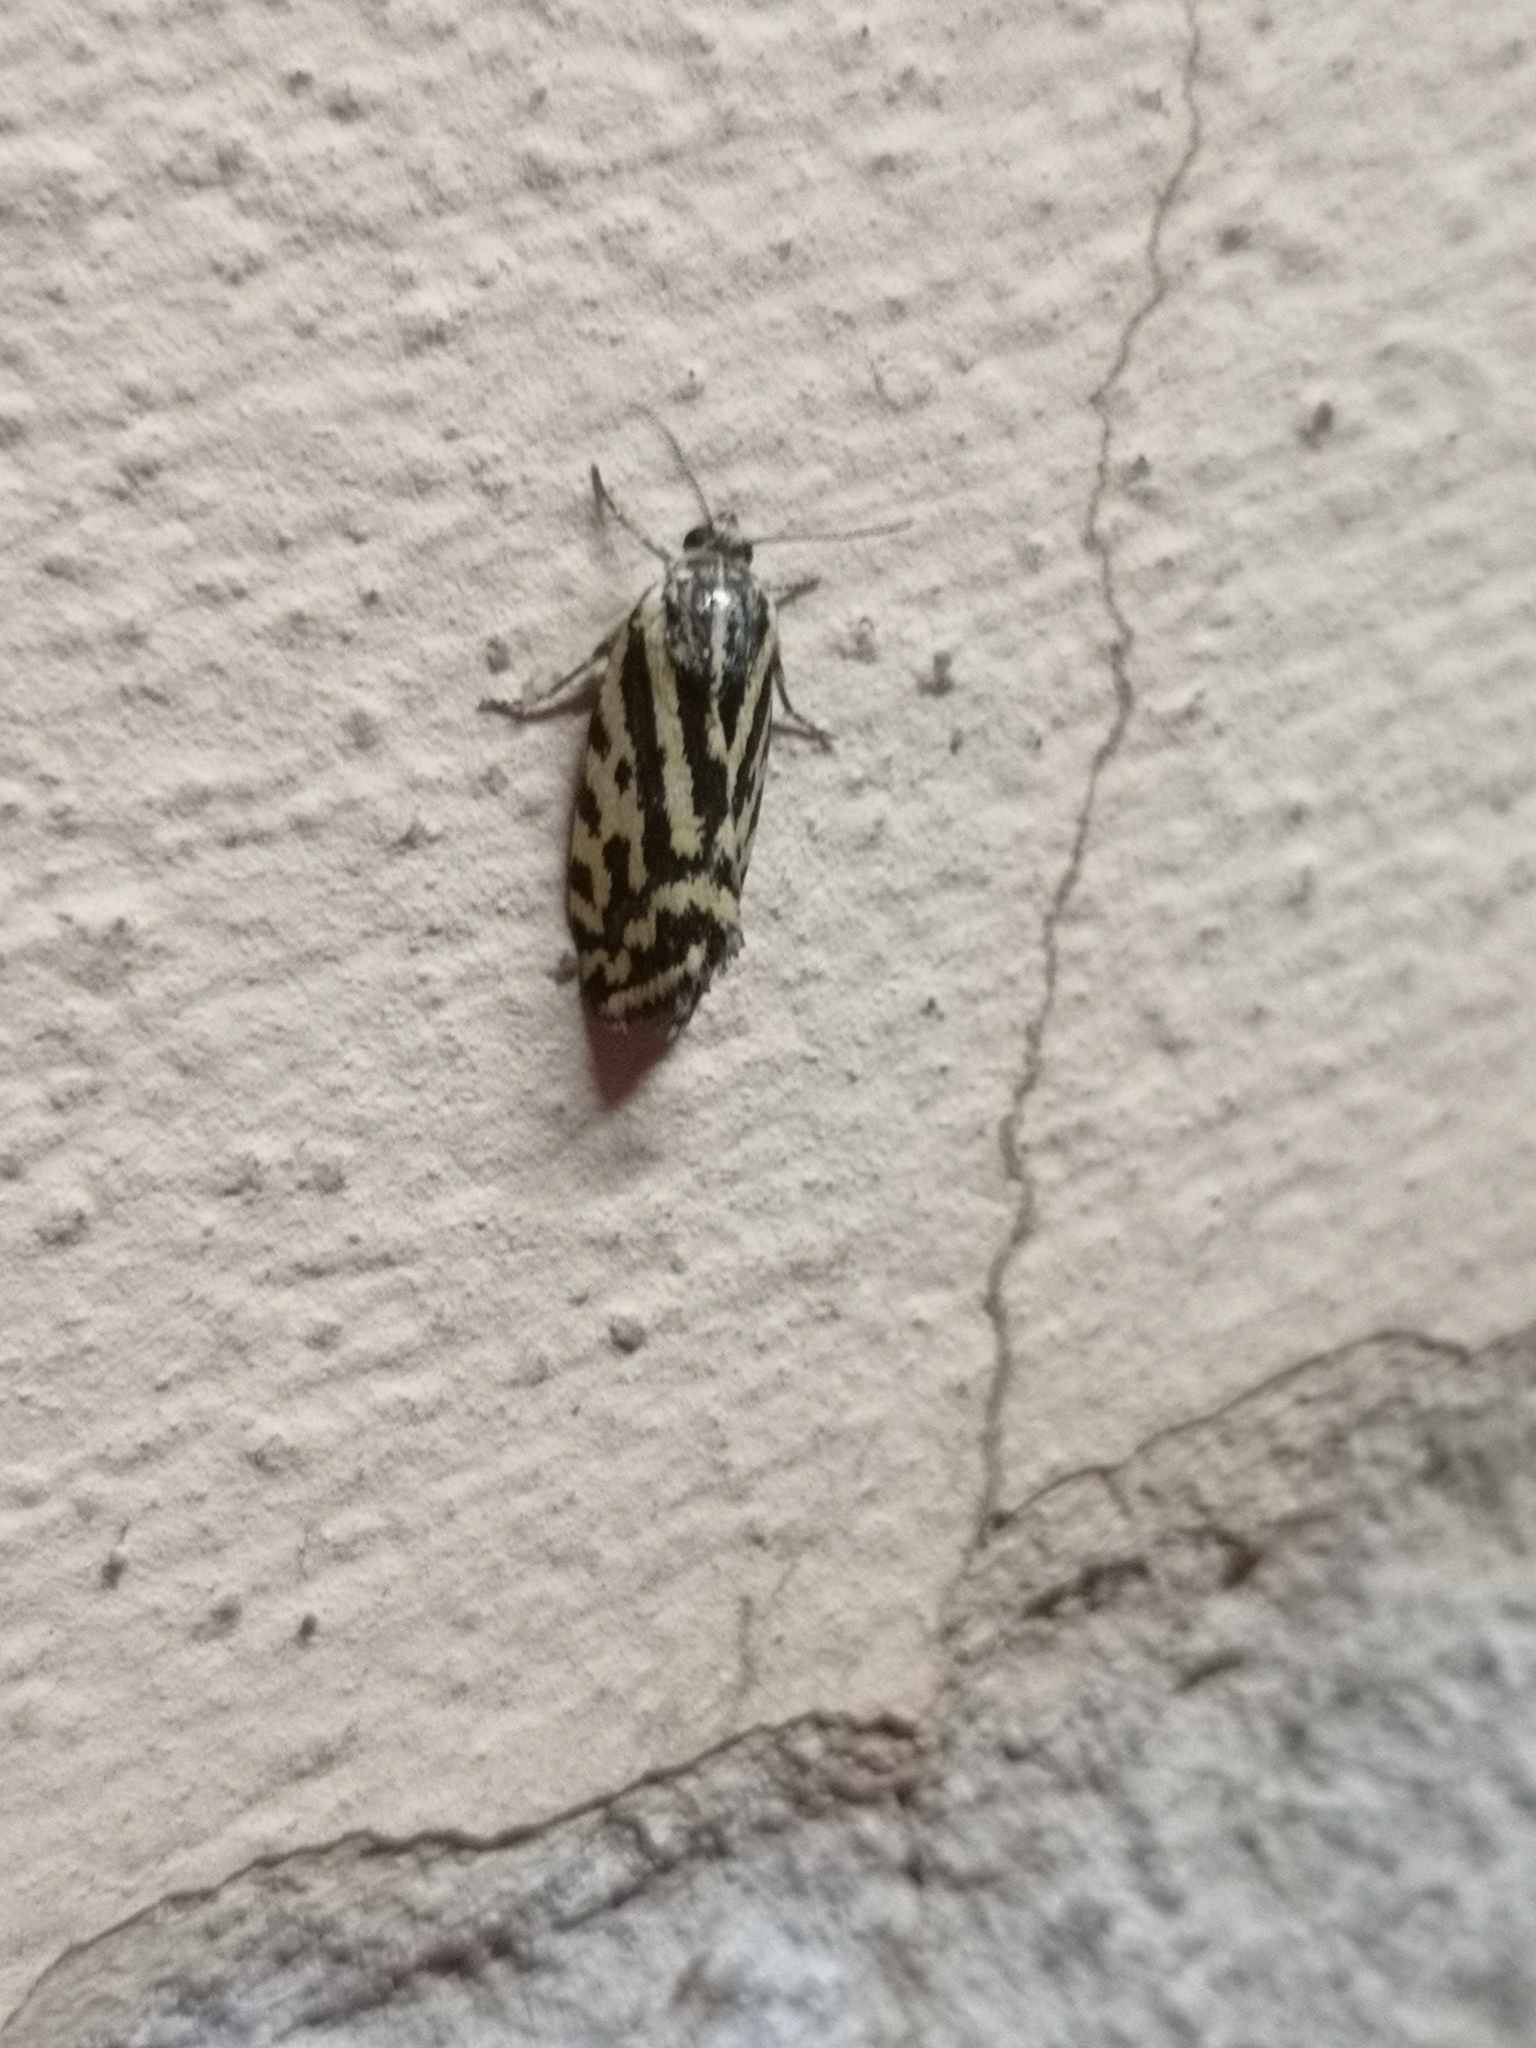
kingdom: Animalia
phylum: Arthropoda
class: Insecta
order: Lepidoptera
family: Noctuidae
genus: Acontia
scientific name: Acontia trabealis
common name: Spotted sulphur
